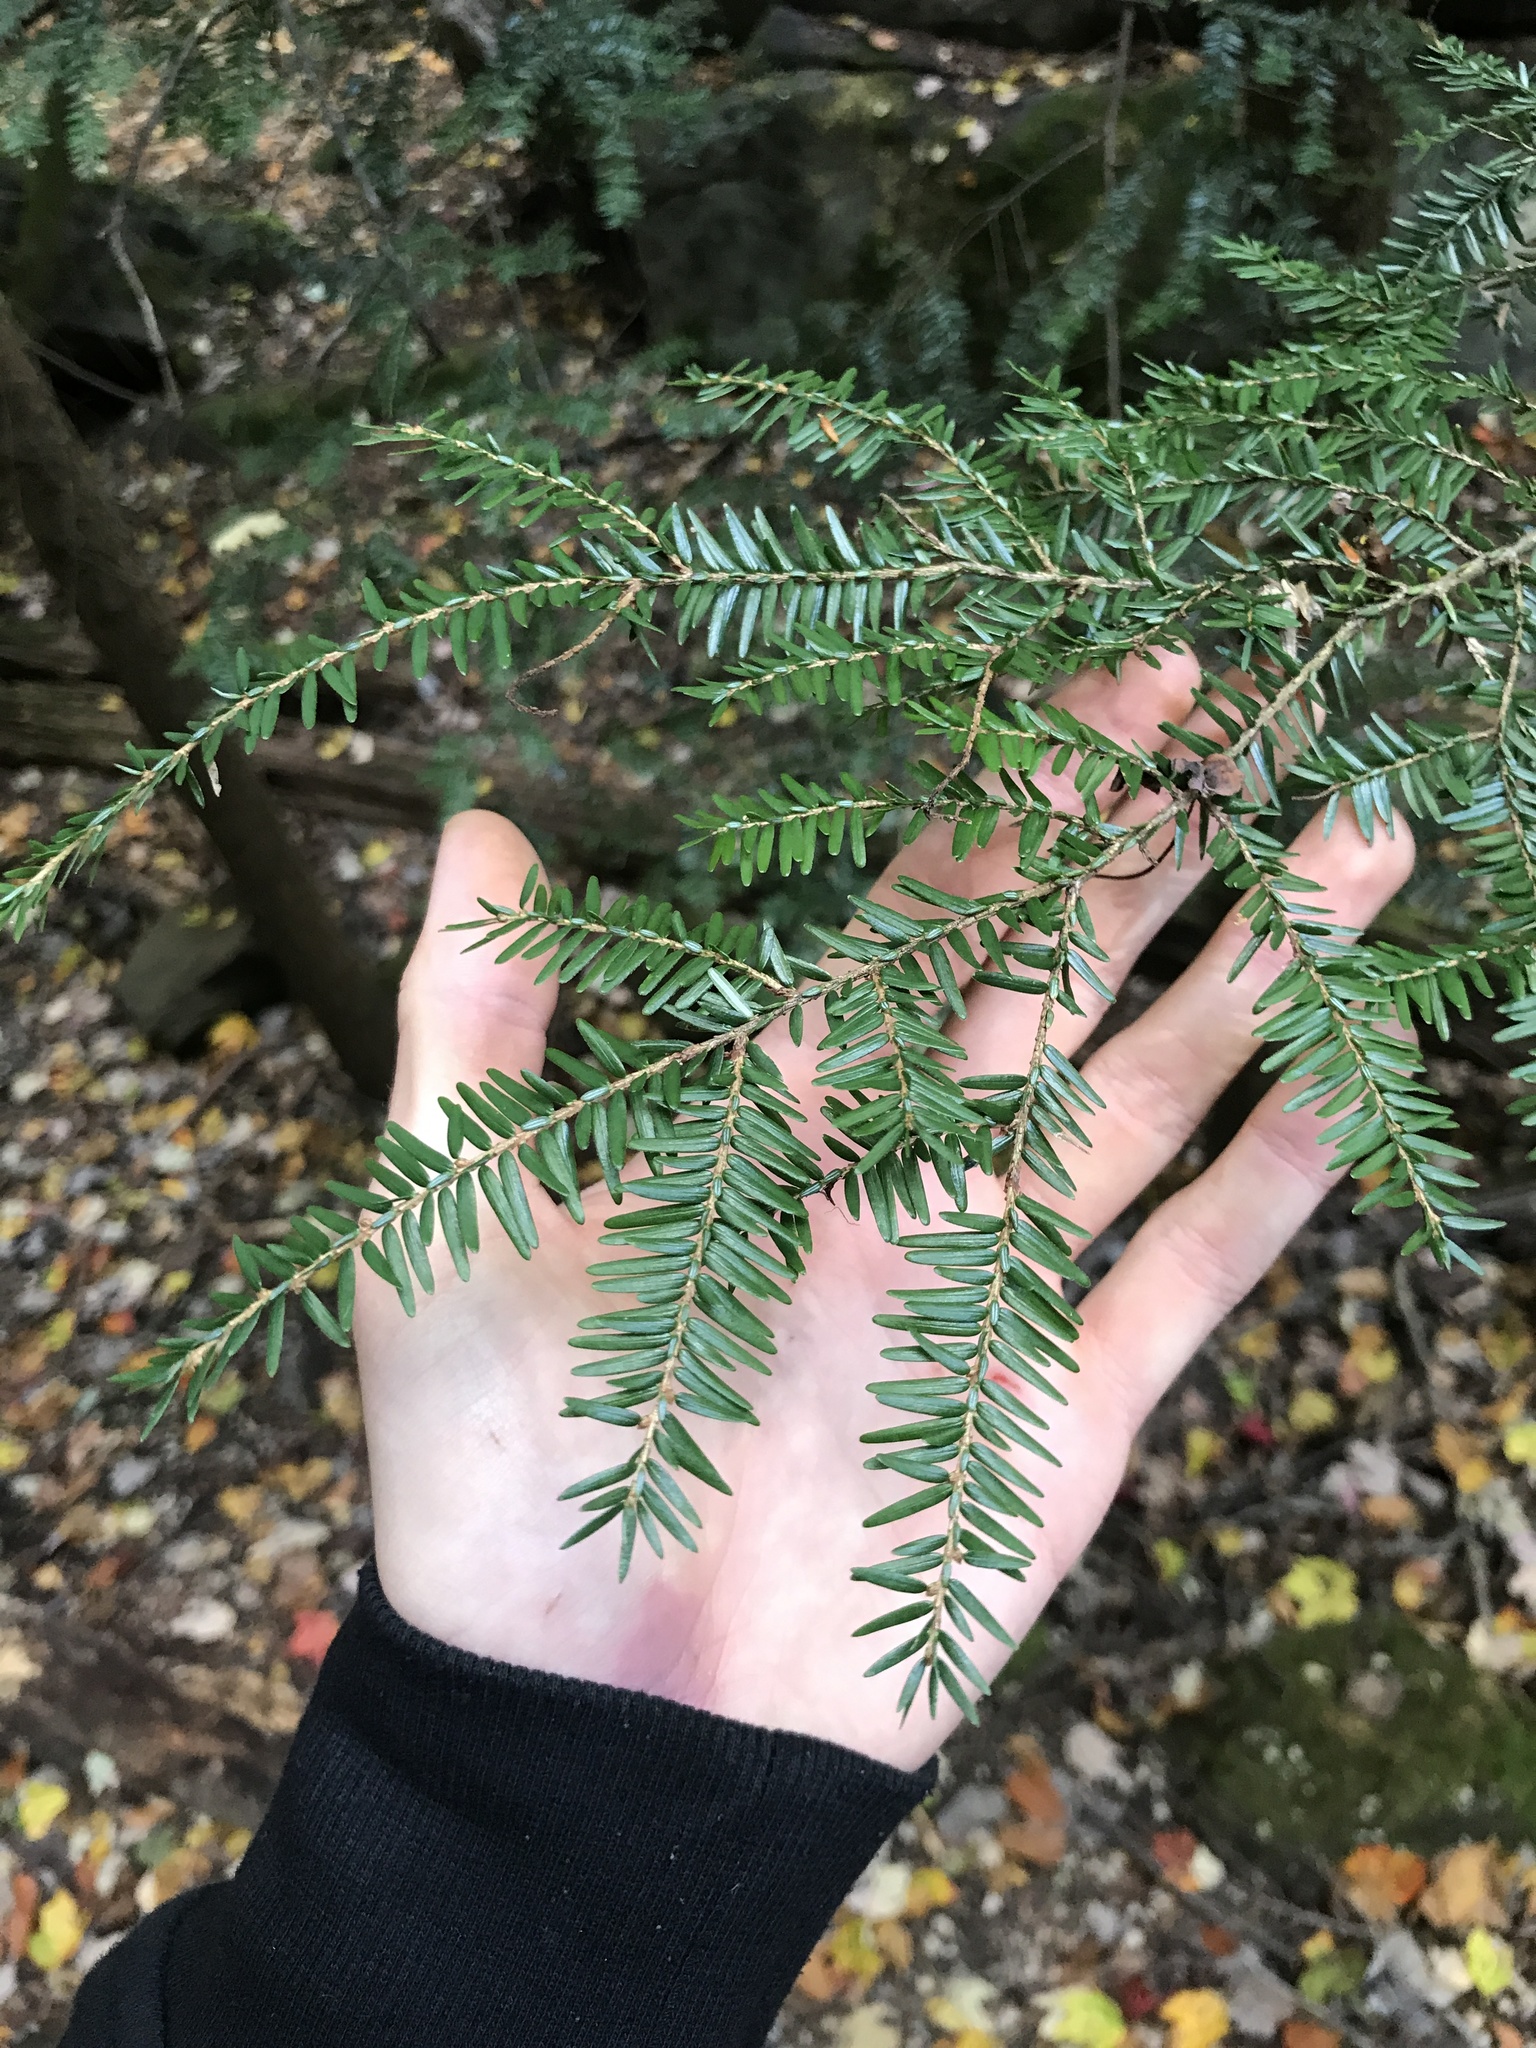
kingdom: Plantae
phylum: Tracheophyta
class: Pinopsida
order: Pinales
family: Pinaceae
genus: Tsuga
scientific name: Tsuga canadensis
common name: Eastern hemlock
